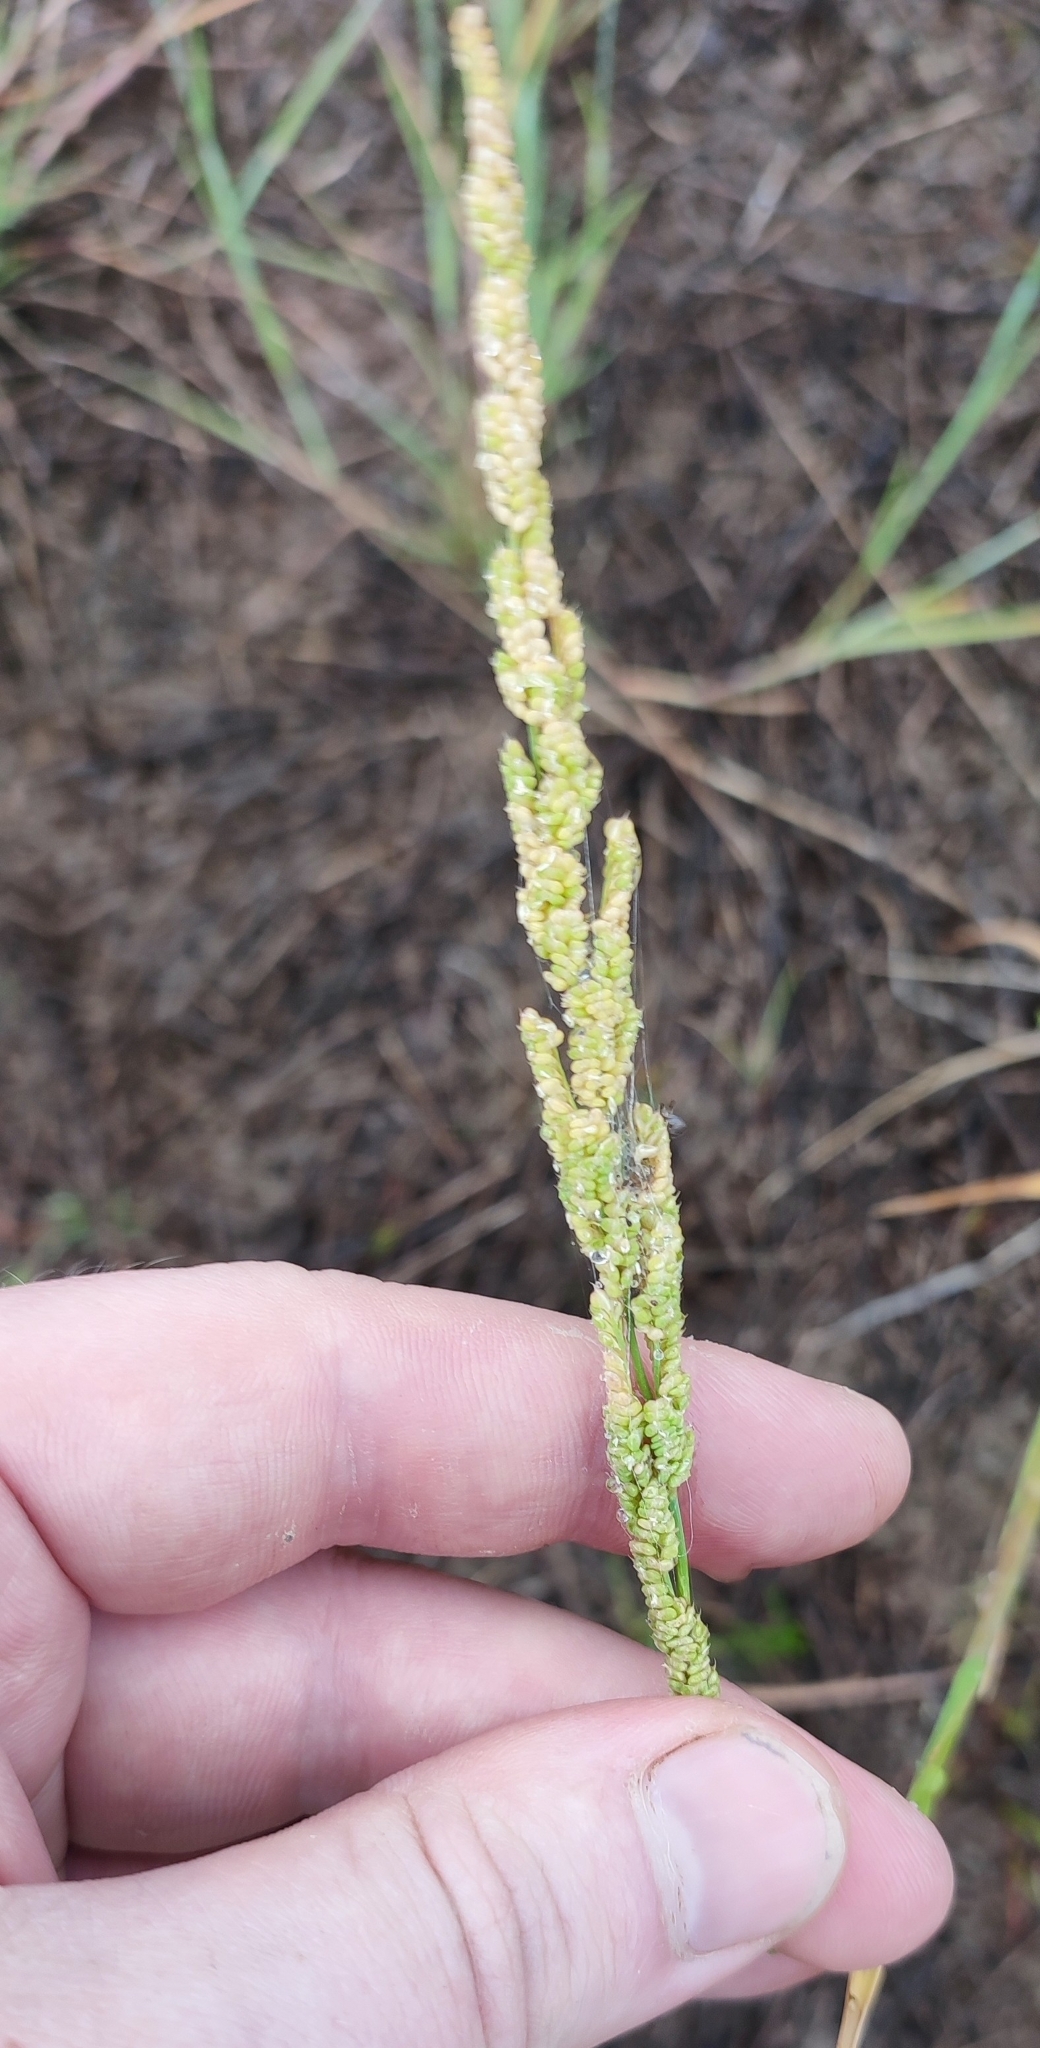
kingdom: Plantae
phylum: Tracheophyta
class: Liliopsida
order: Poales
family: Poaceae
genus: Beckmannia
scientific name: Beckmannia syzigachne
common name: American slough-grass
